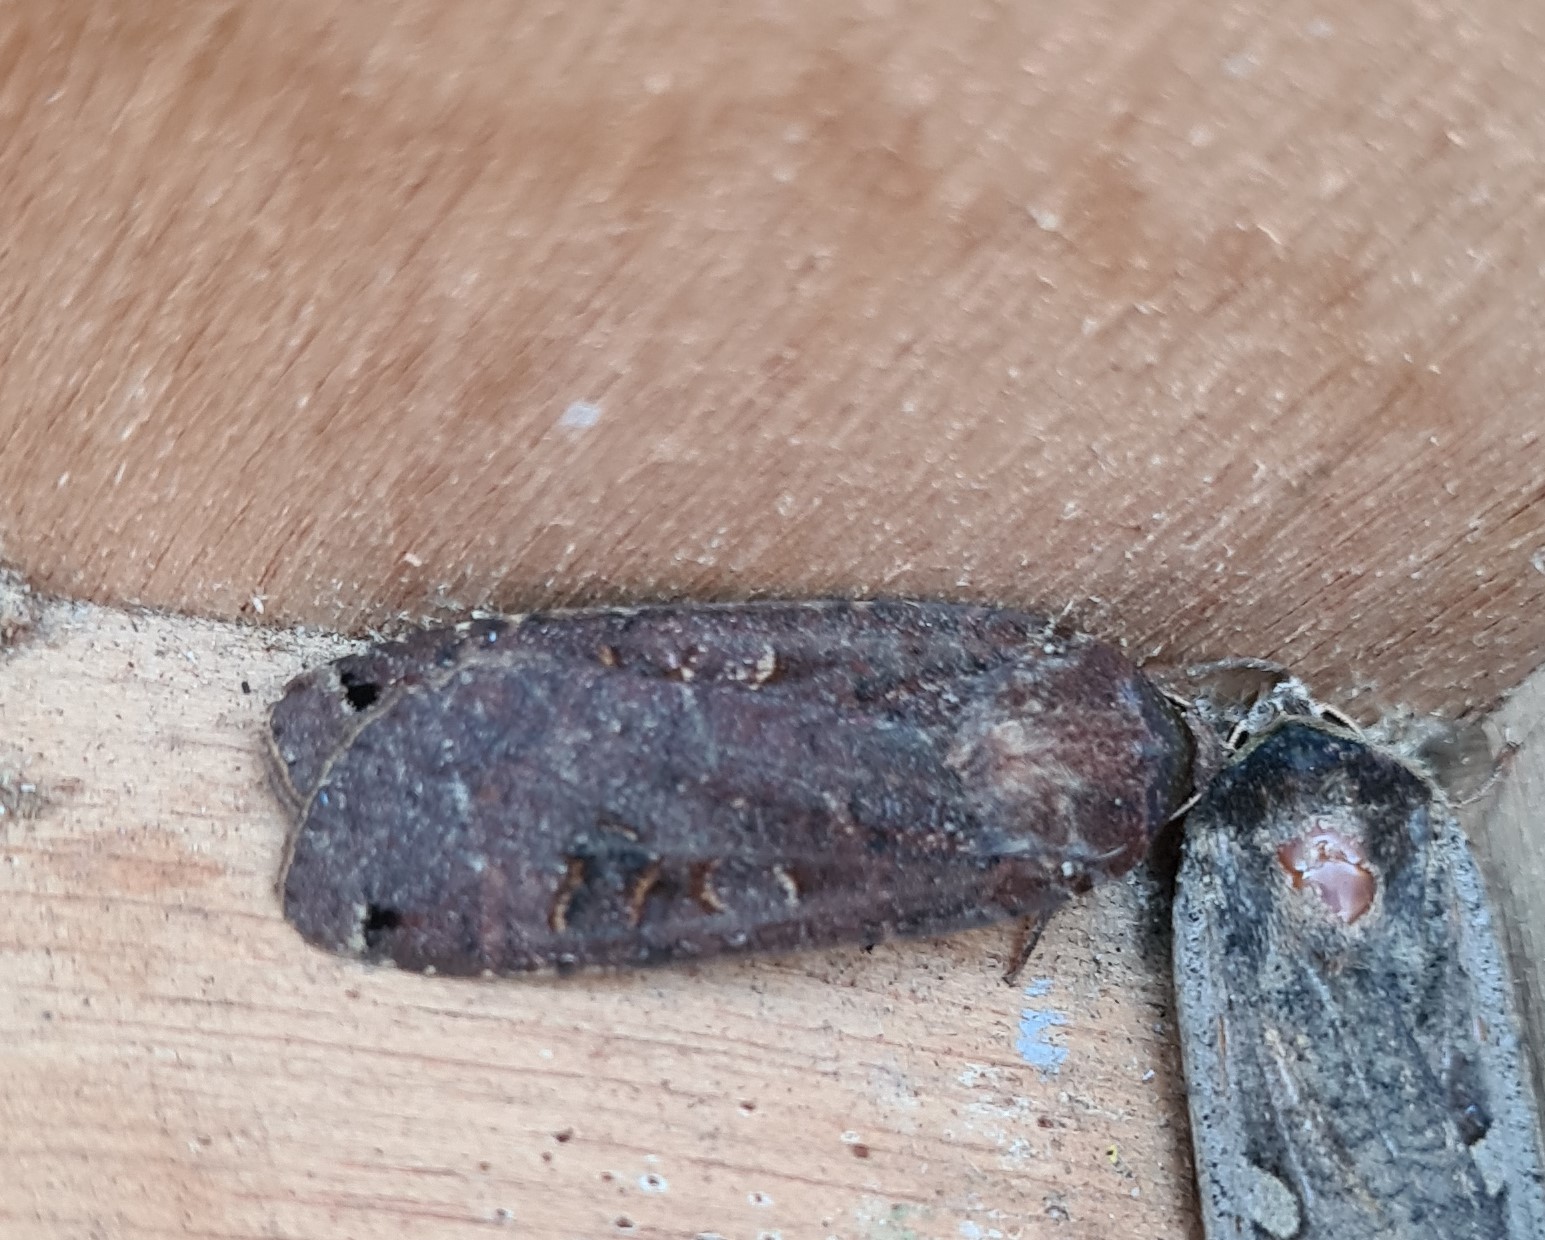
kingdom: Animalia
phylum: Arthropoda
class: Insecta
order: Lepidoptera
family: Noctuidae
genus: Noctua
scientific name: Noctua pronuba
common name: Large yellow underwing
